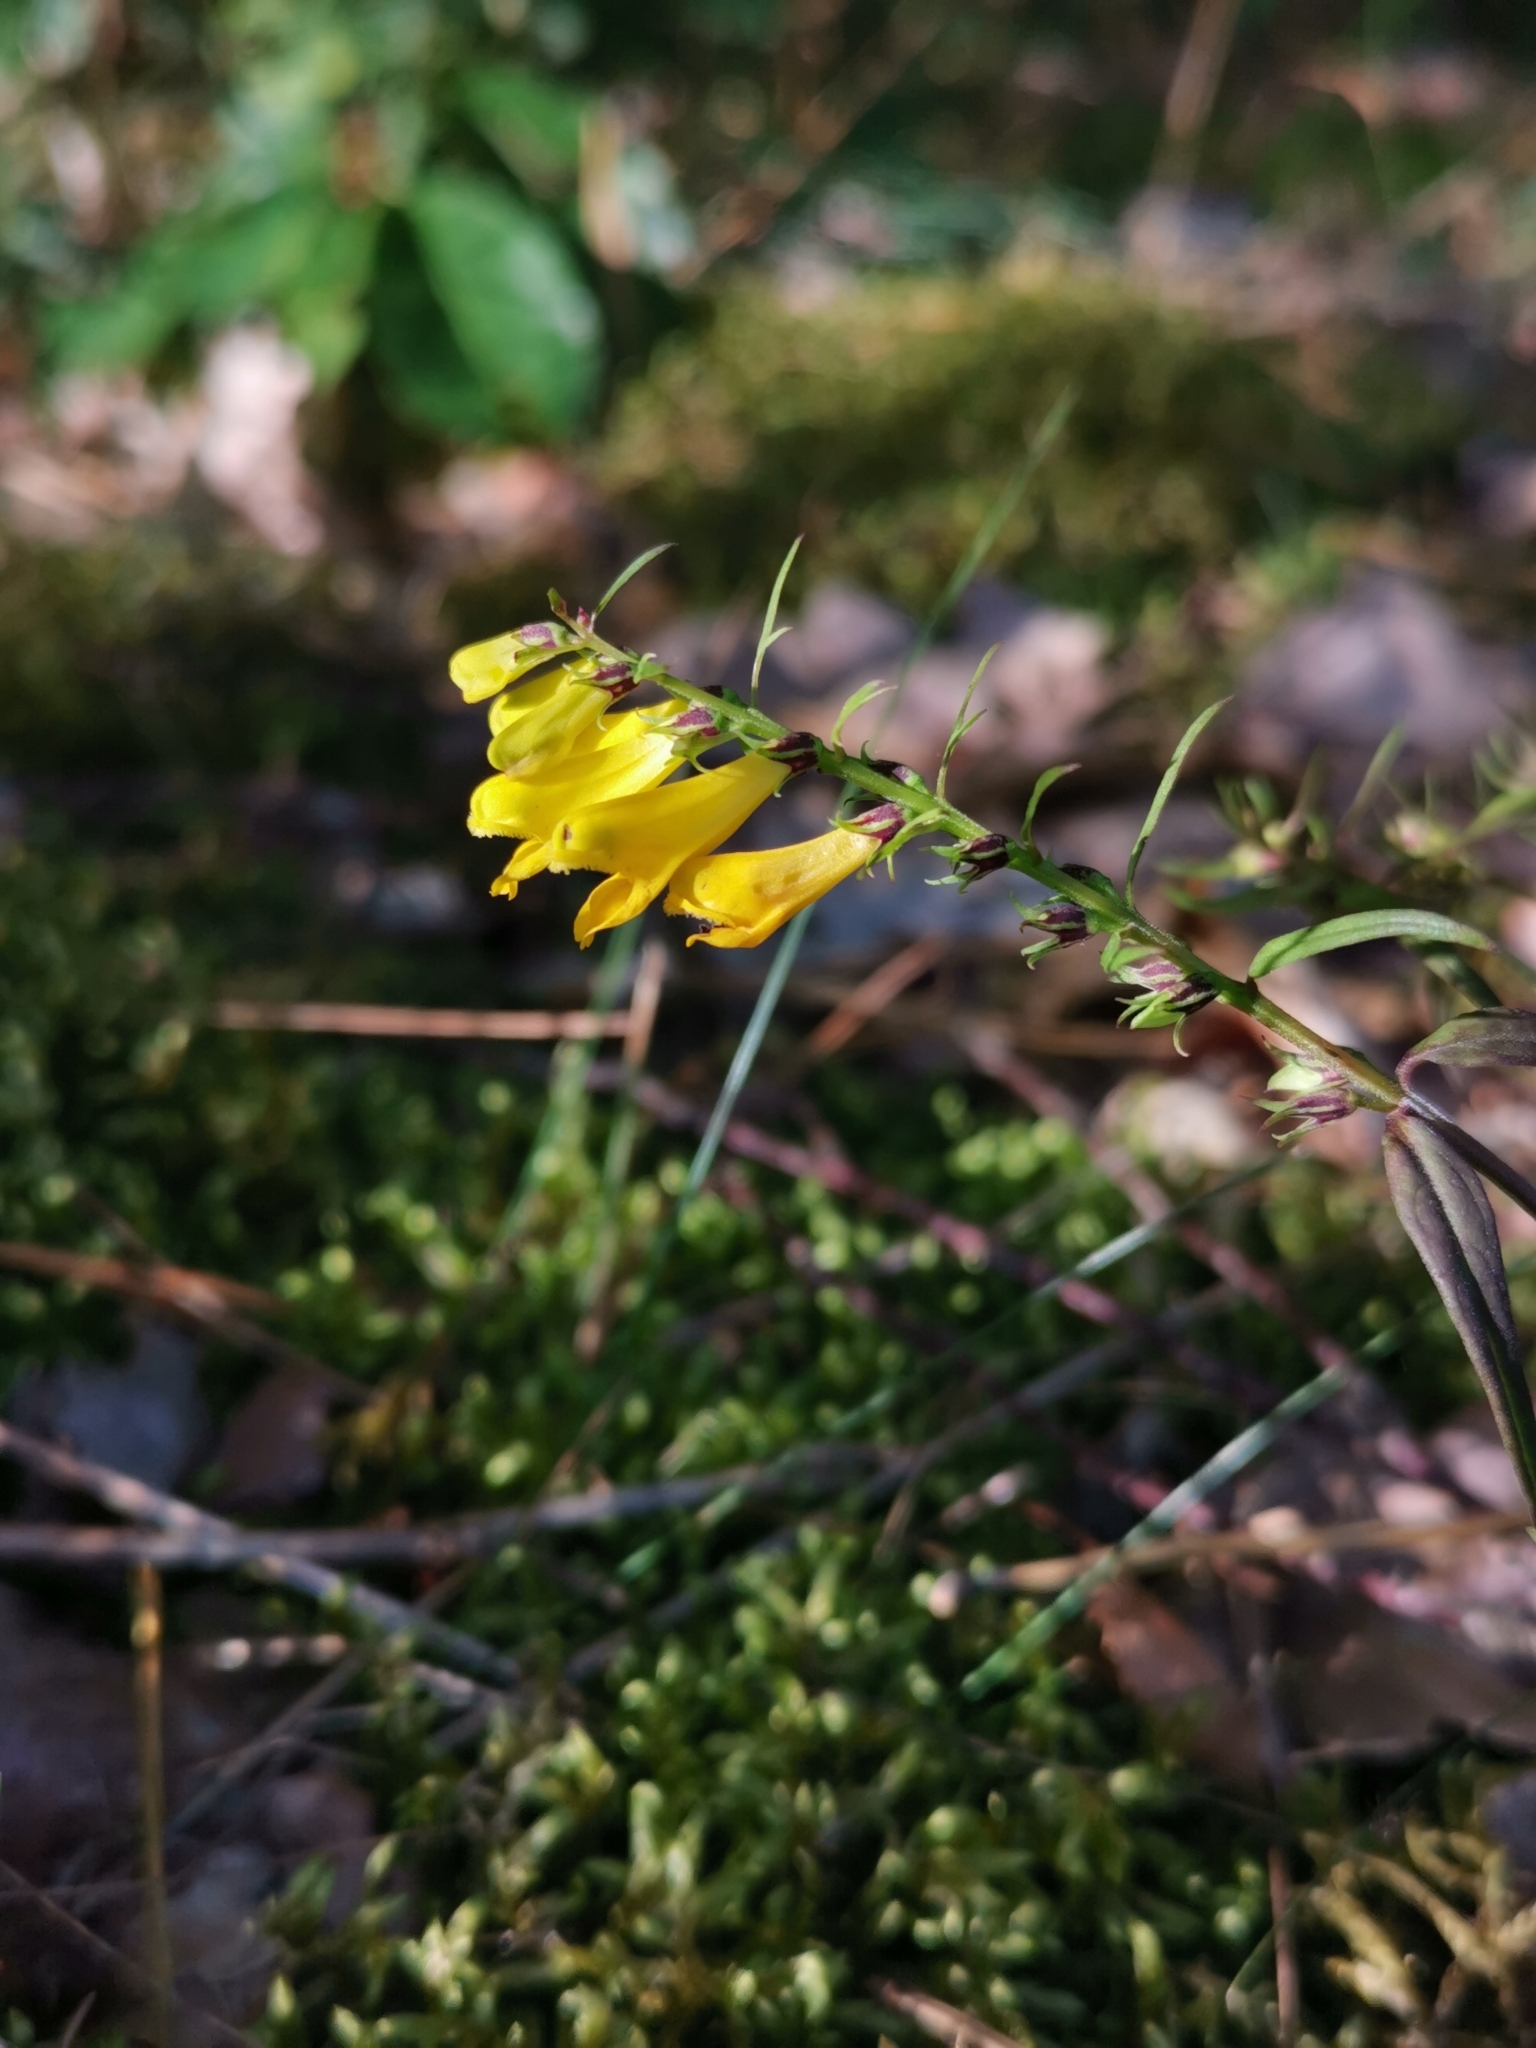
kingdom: Plantae
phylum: Tracheophyta
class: Magnoliopsida
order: Lamiales
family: Orobanchaceae
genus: Melampyrum
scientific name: Melampyrum pratense
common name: Common cow-wheat
